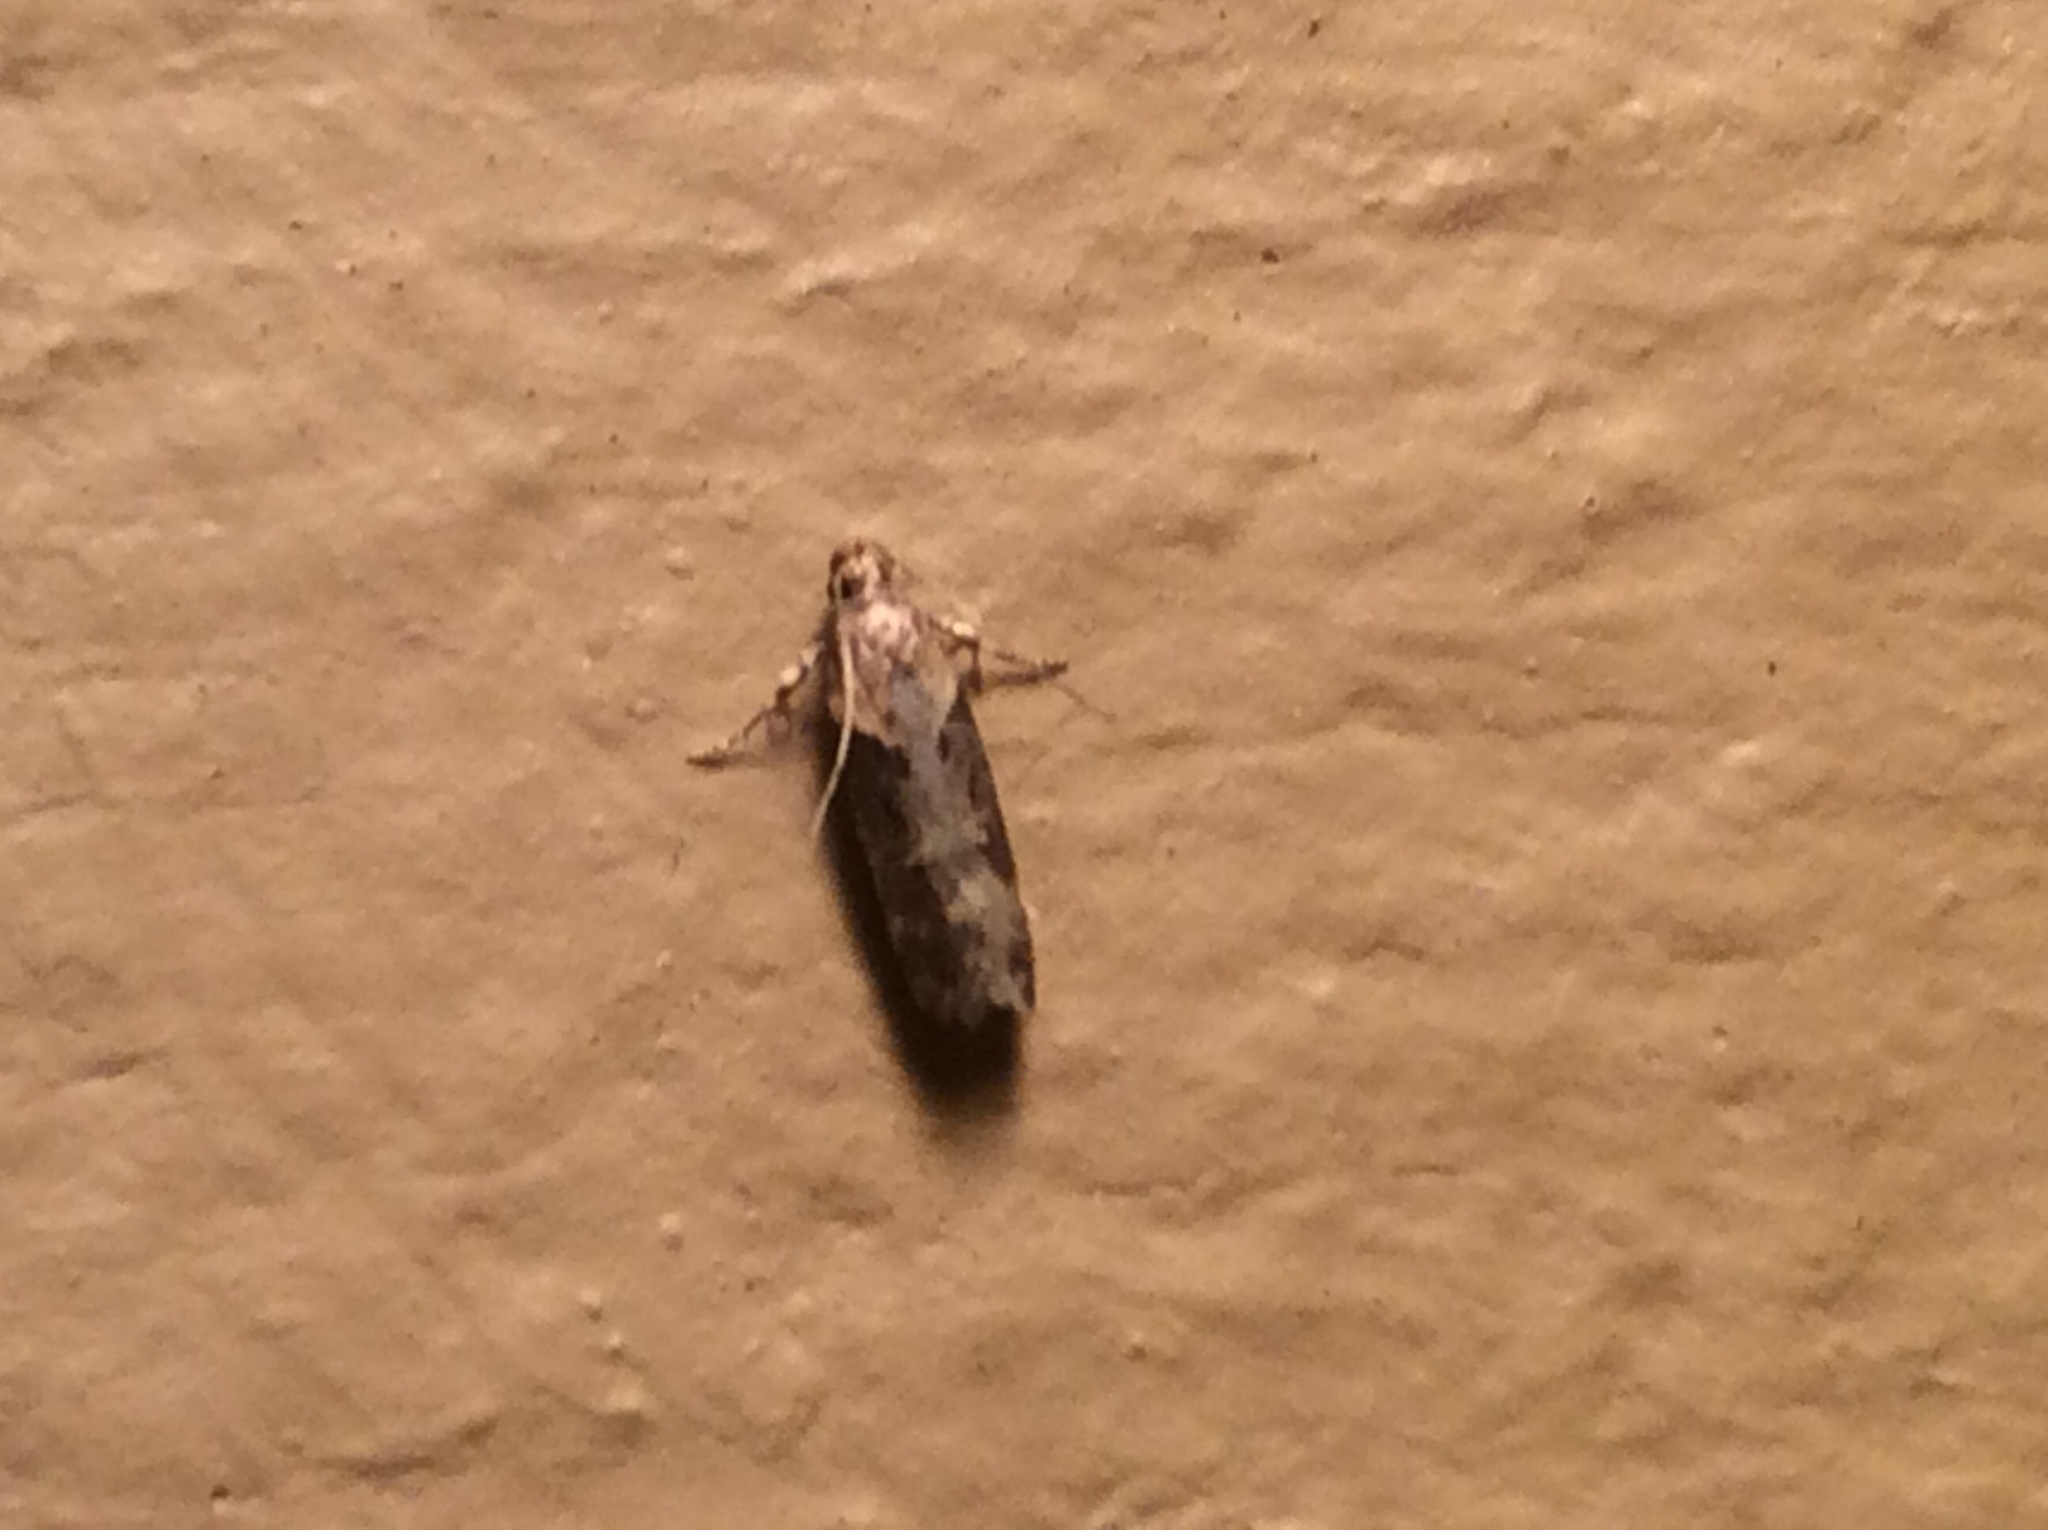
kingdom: Animalia
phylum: Arthropoda
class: Insecta
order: Lepidoptera
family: Gelechiidae
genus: Chionodes
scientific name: Chionodes mediofuscella
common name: Black-smudged chionodes moth
